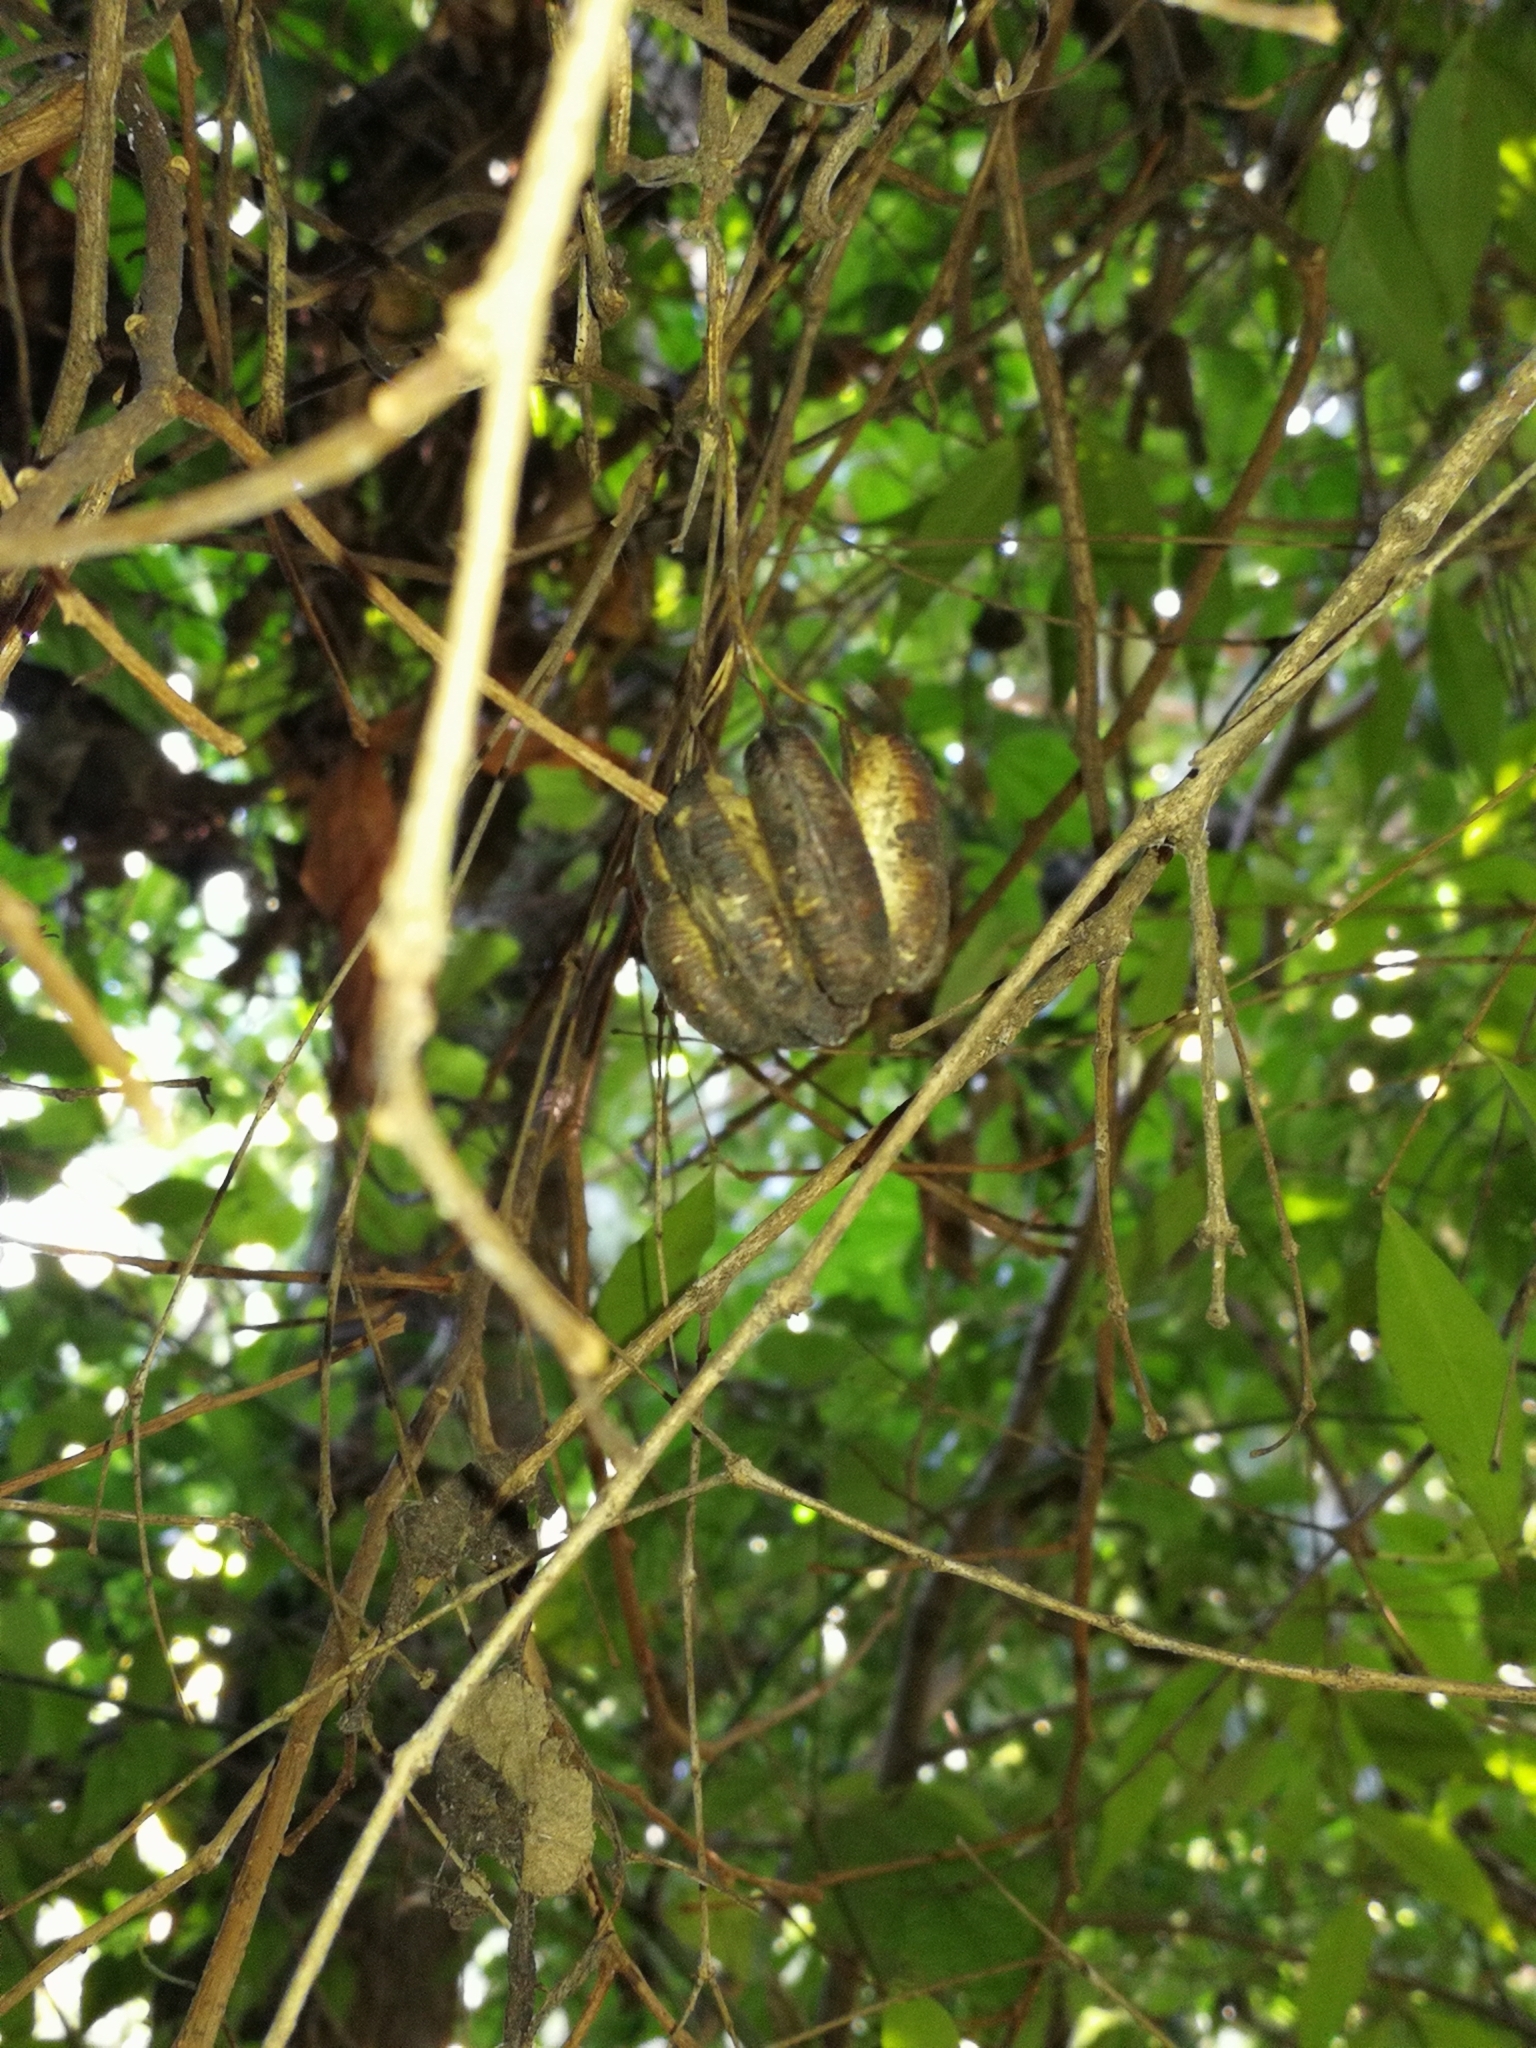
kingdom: Plantae
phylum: Tracheophyta
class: Magnoliopsida
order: Piperales
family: Aristolochiaceae
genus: Aristolochia
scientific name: Aristolochia triangularis
